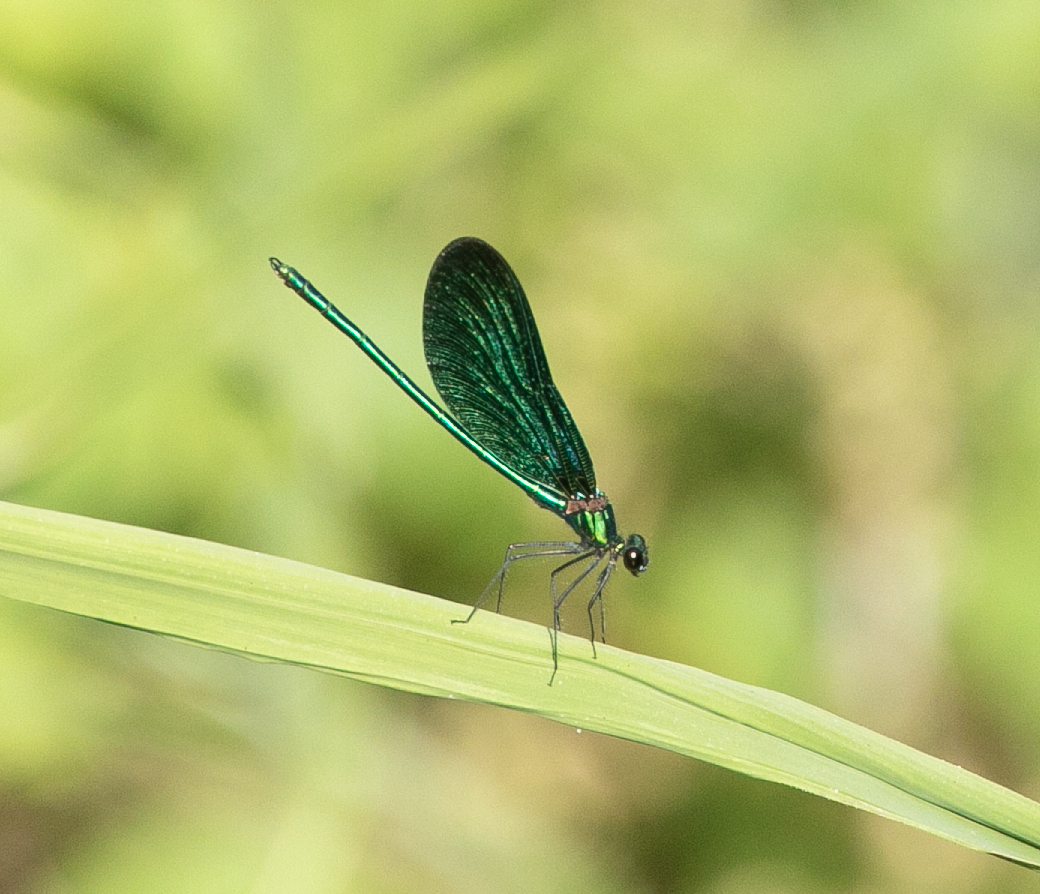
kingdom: Animalia
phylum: Arthropoda
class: Insecta
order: Odonata
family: Calopterygidae
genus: Calopteryx
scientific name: Calopteryx virgo
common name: Beautiful demoiselle
